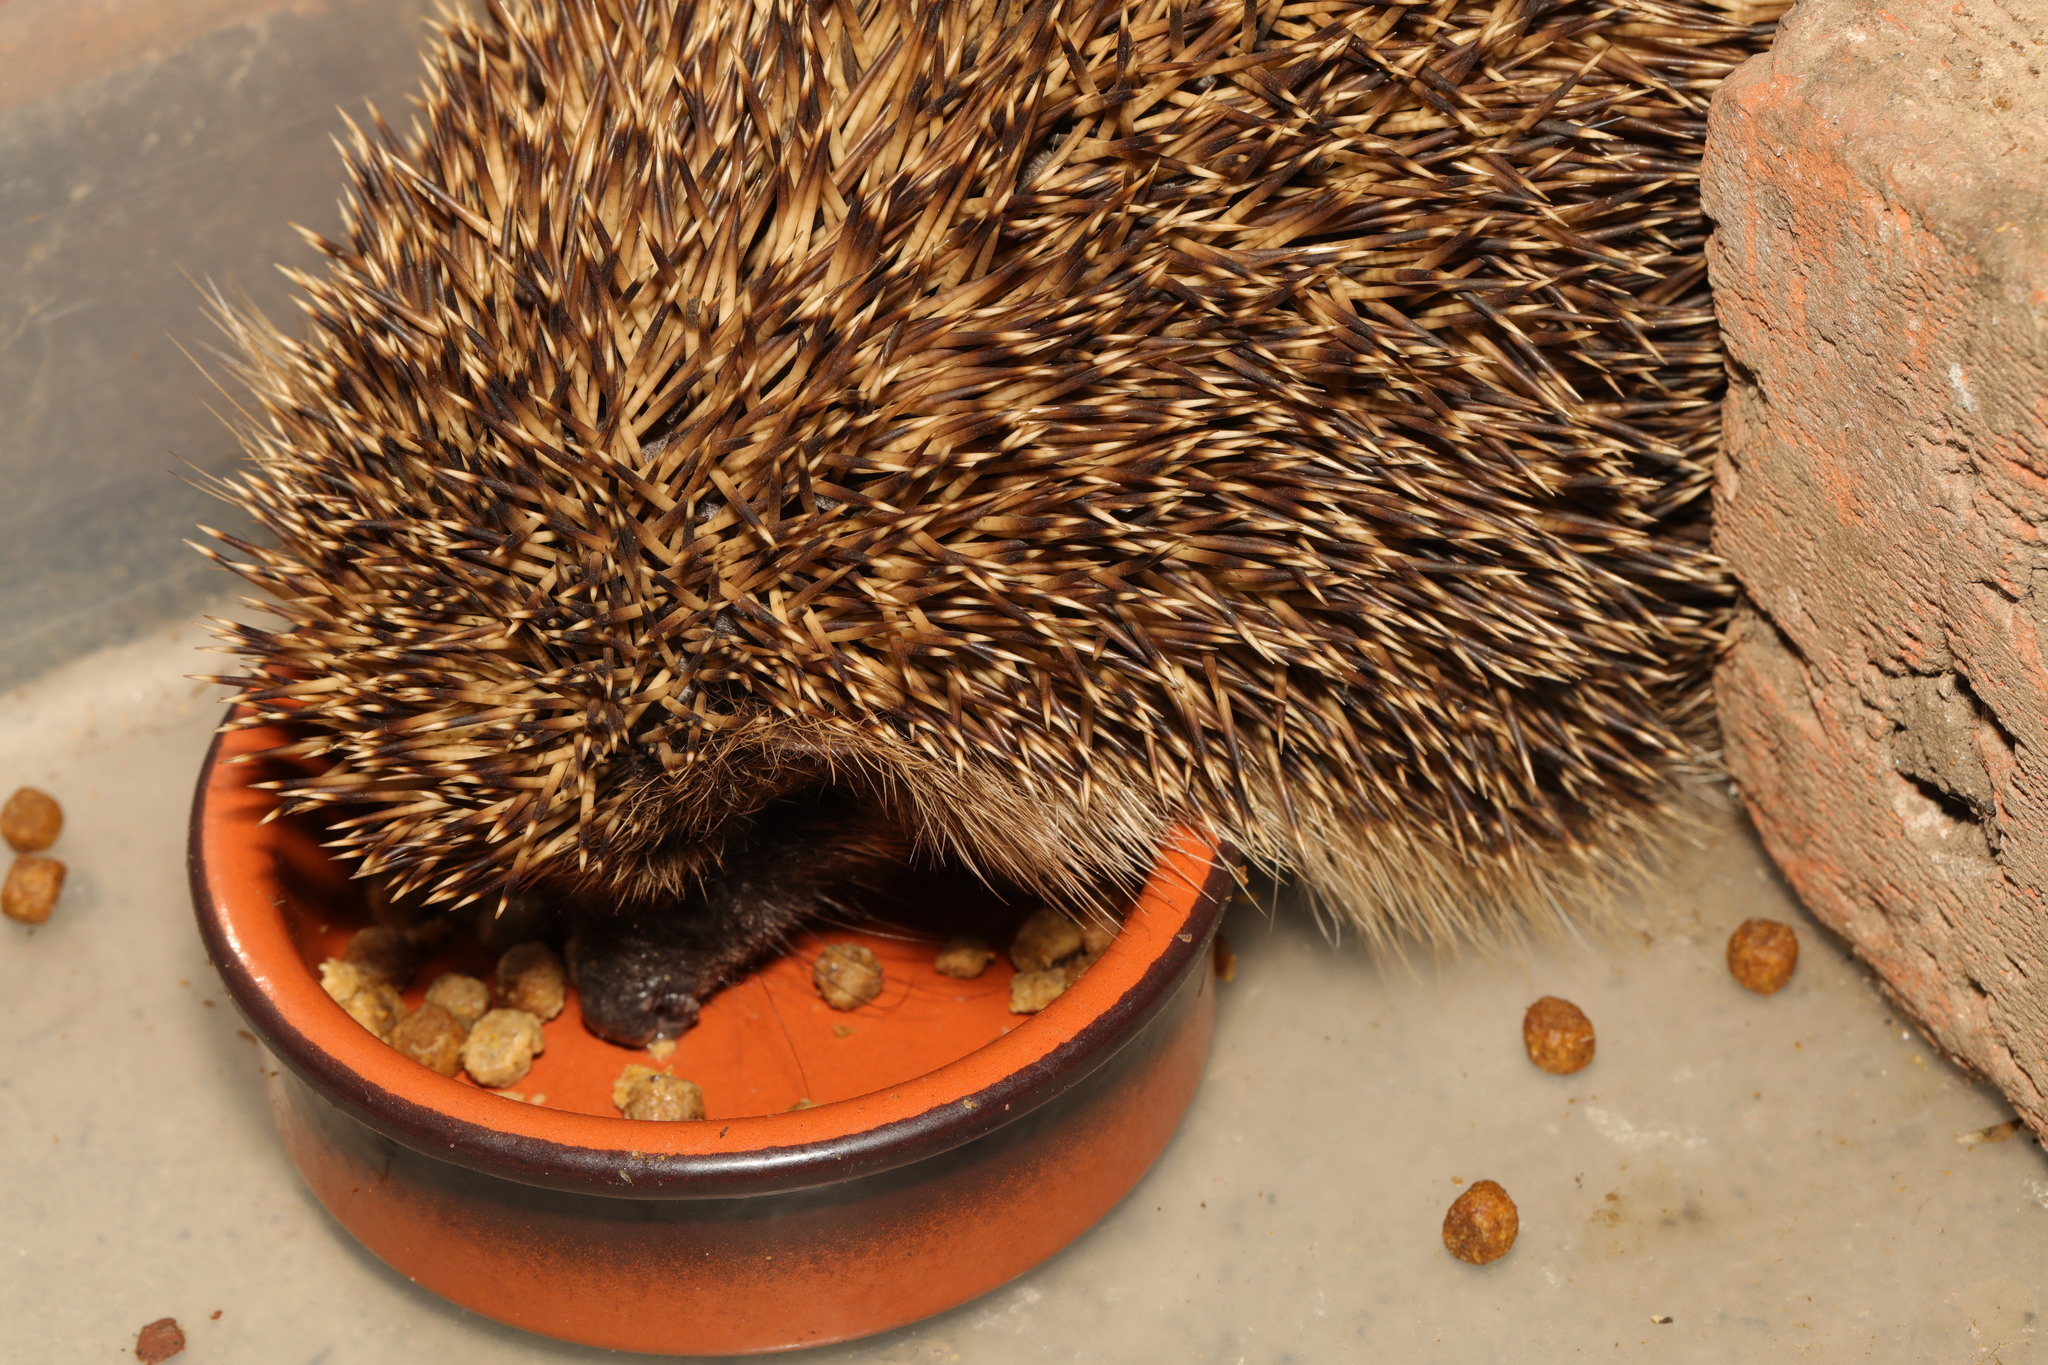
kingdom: Animalia
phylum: Chordata
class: Mammalia
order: Erinaceomorpha
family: Erinaceidae
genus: Erinaceus
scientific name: Erinaceus europaeus
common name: West european hedgehog
